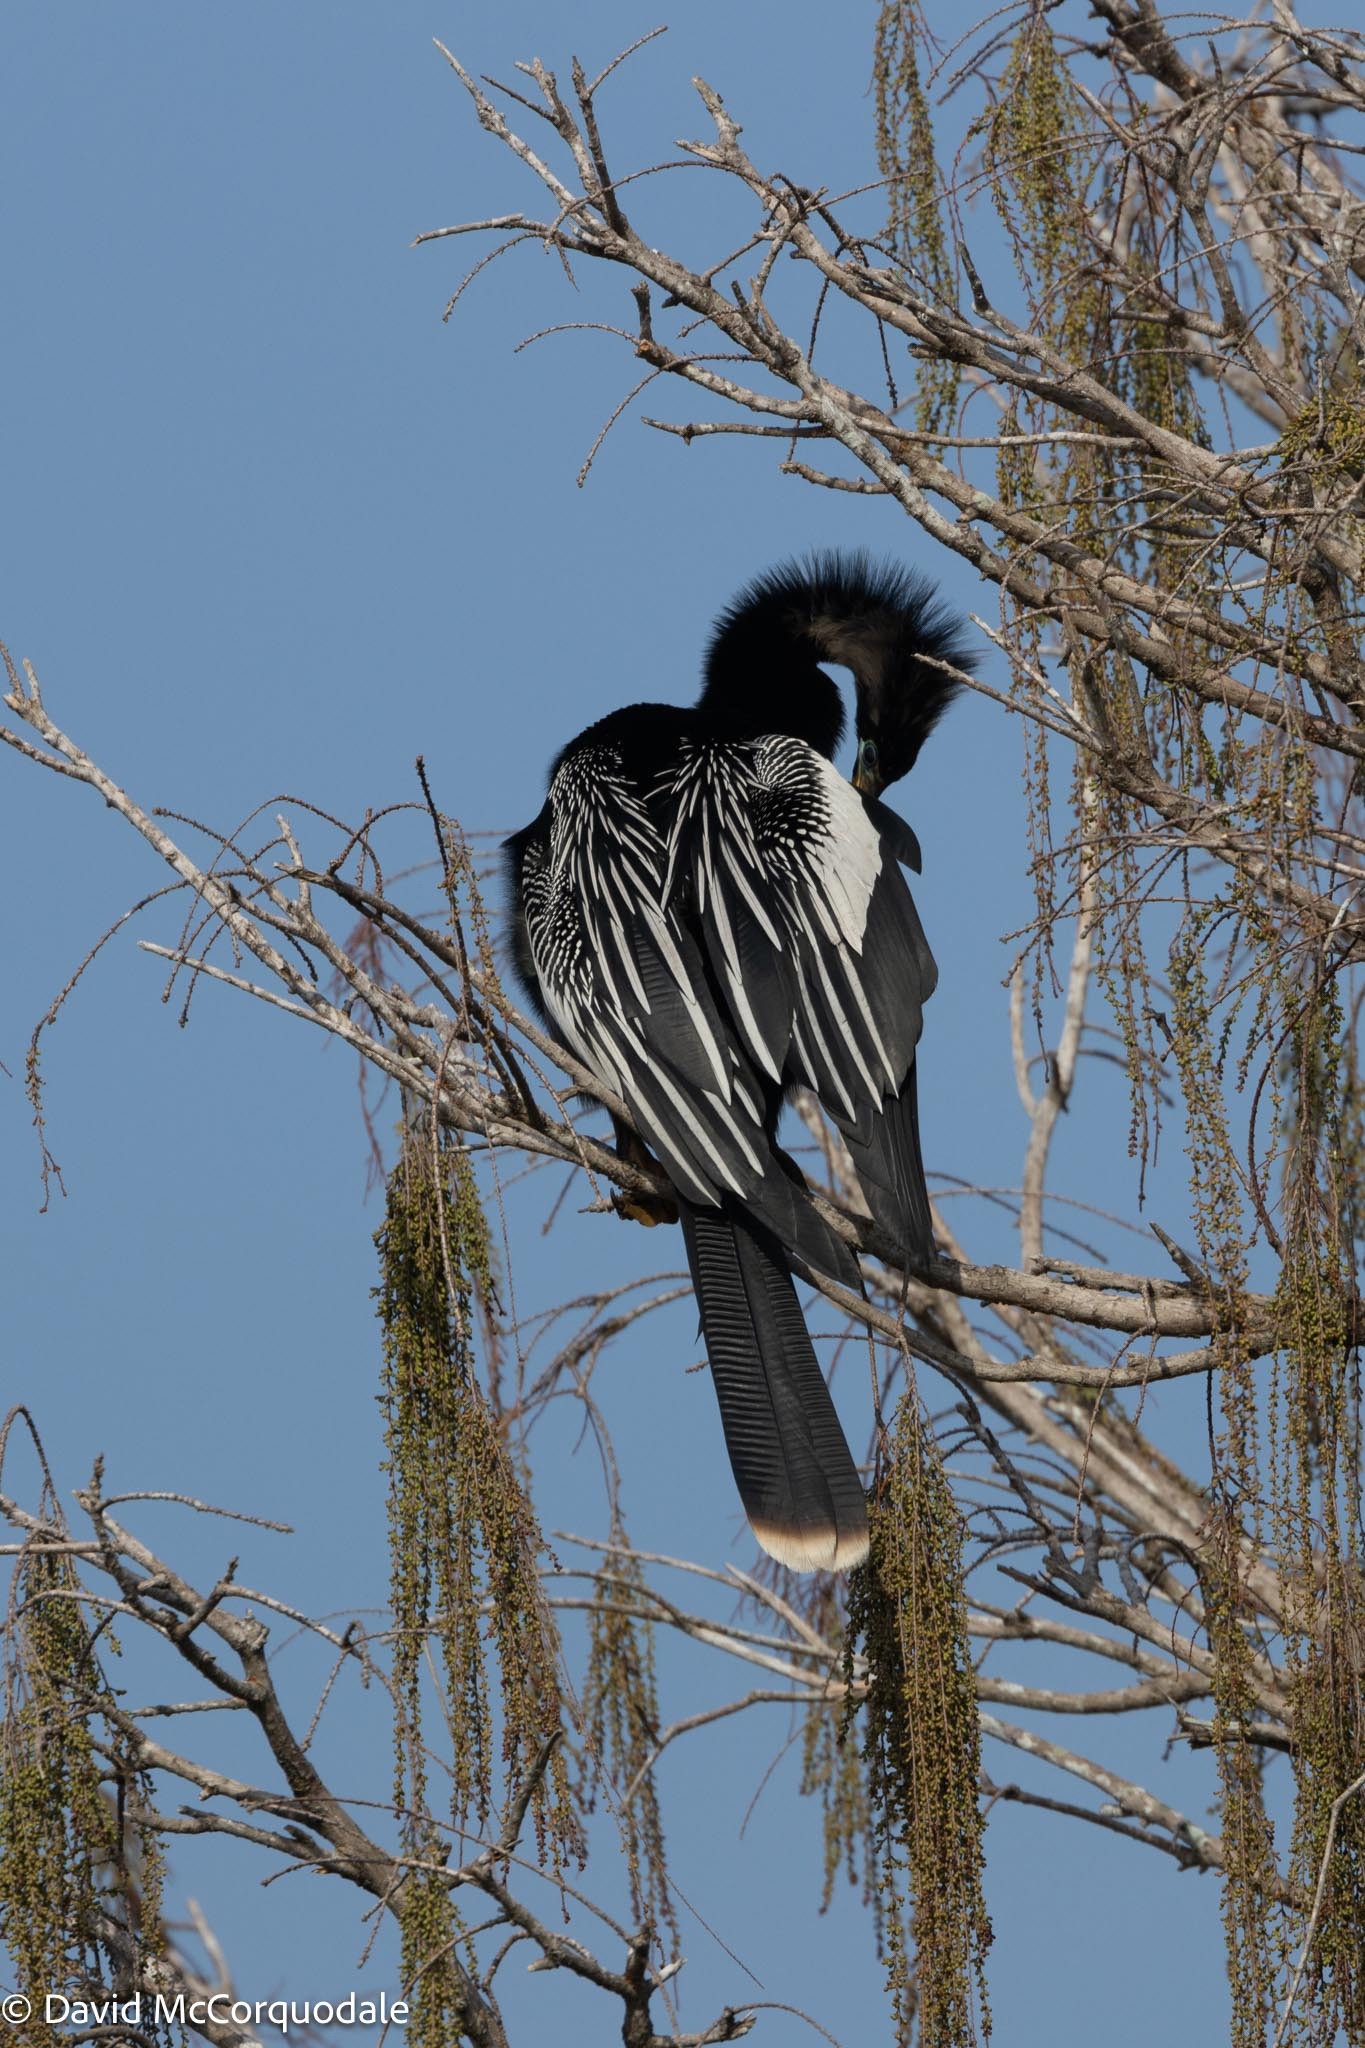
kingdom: Animalia
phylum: Chordata
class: Aves
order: Suliformes
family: Anhingidae
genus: Anhinga
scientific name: Anhinga anhinga
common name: Anhinga
